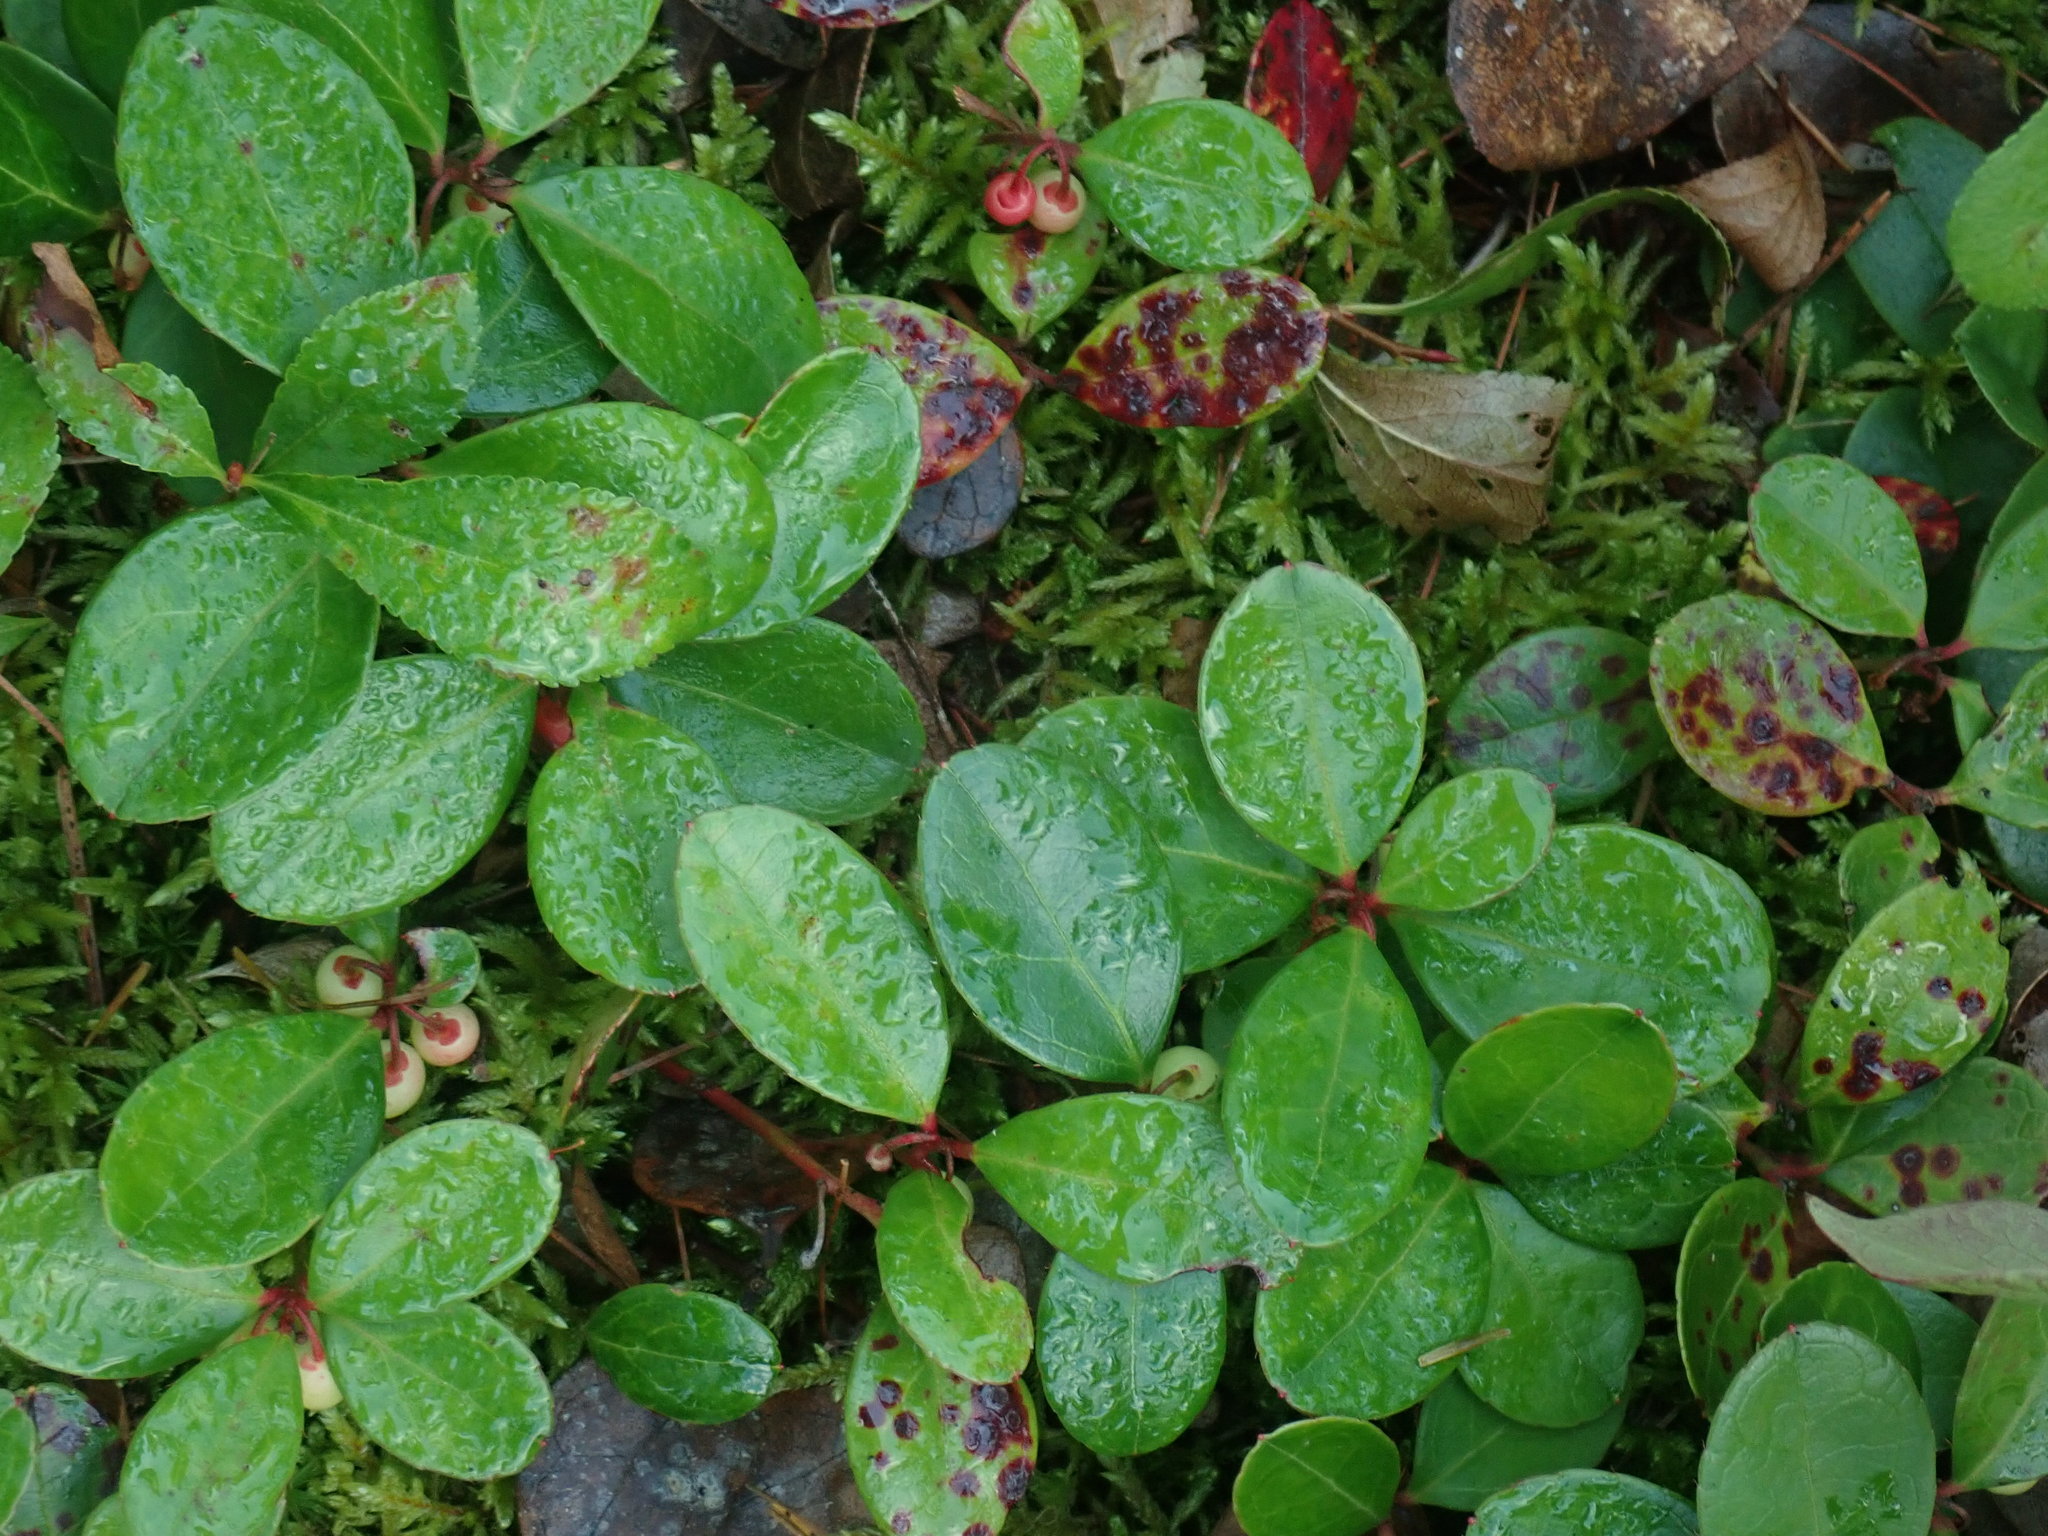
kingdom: Plantae
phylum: Tracheophyta
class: Magnoliopsida
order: Ericales
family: Ericaceae
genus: Gaultheria
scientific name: Gaultheria procumbens
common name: Checkerberry
